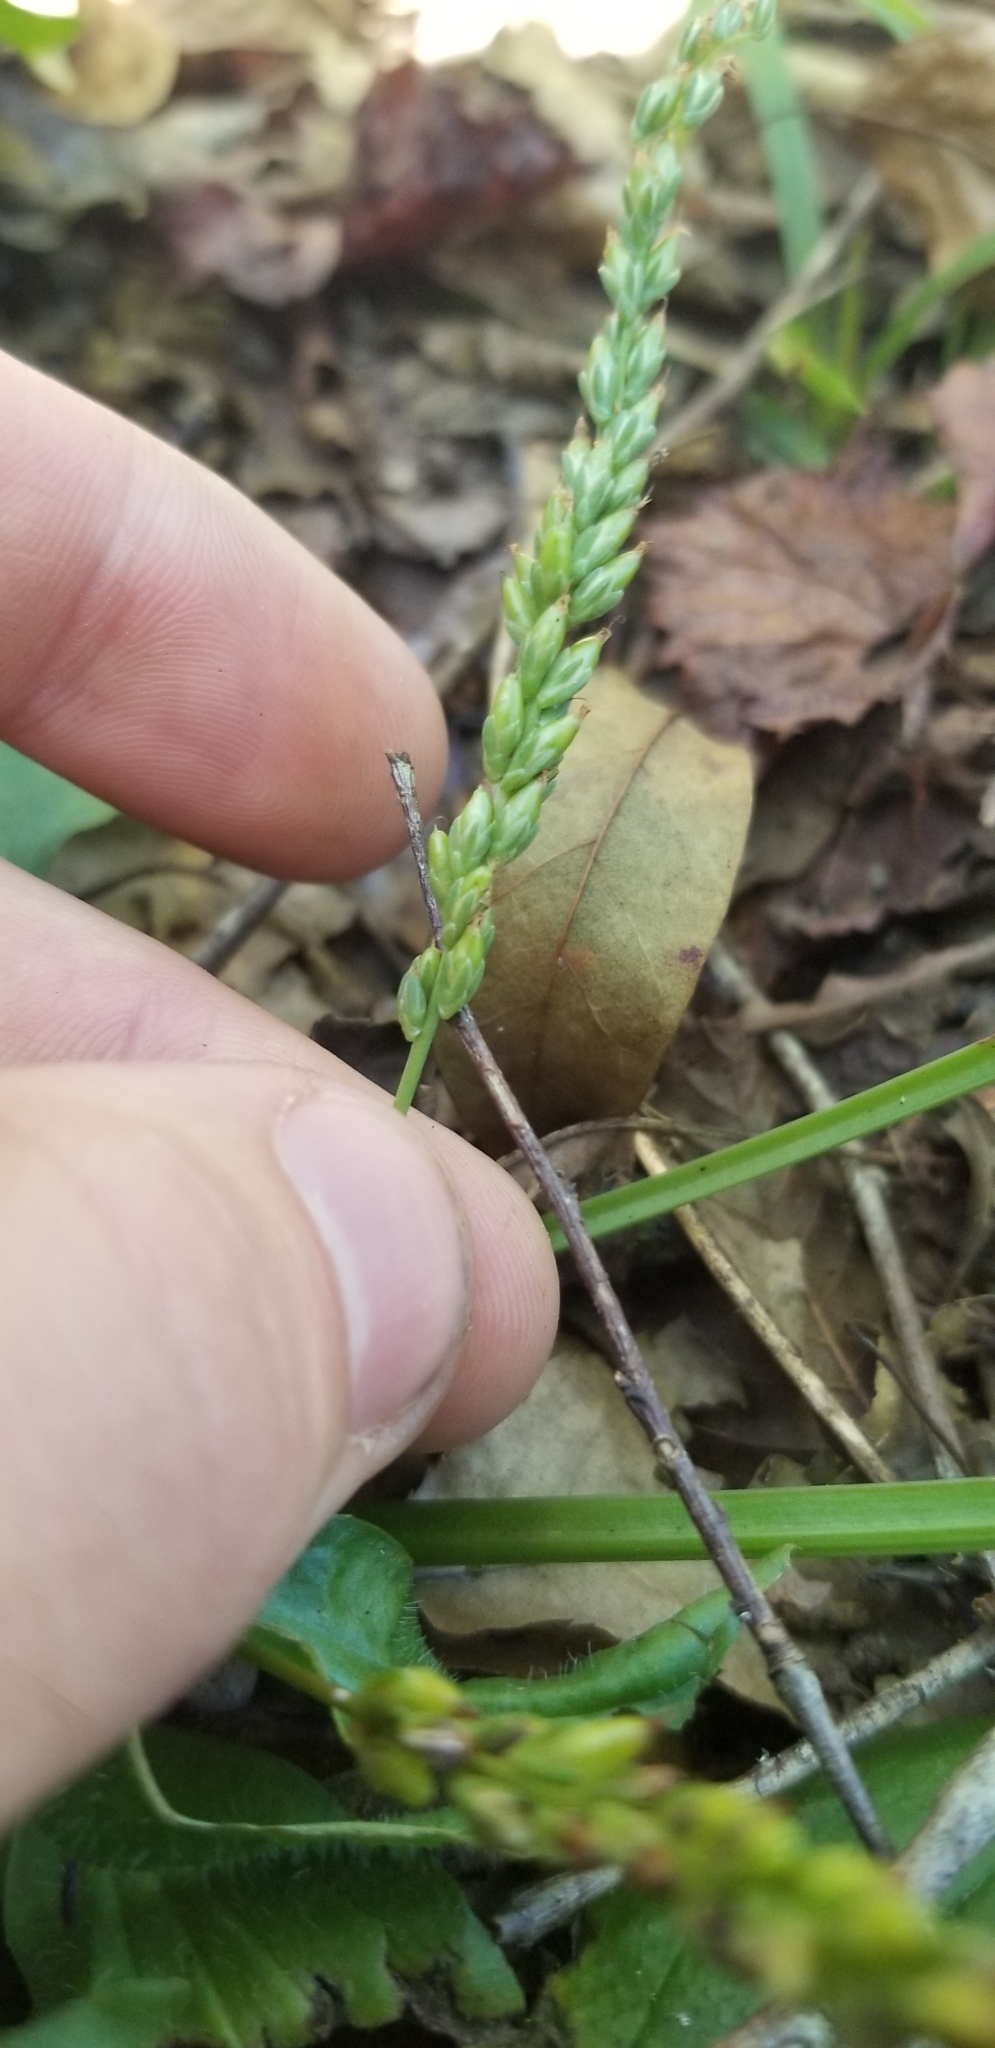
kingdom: Plantae
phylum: Tracheophyta
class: Magnoliopsida
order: Lamiales
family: Plantaginaceae
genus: Plantago
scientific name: Plantago rugelii
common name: American plantain
